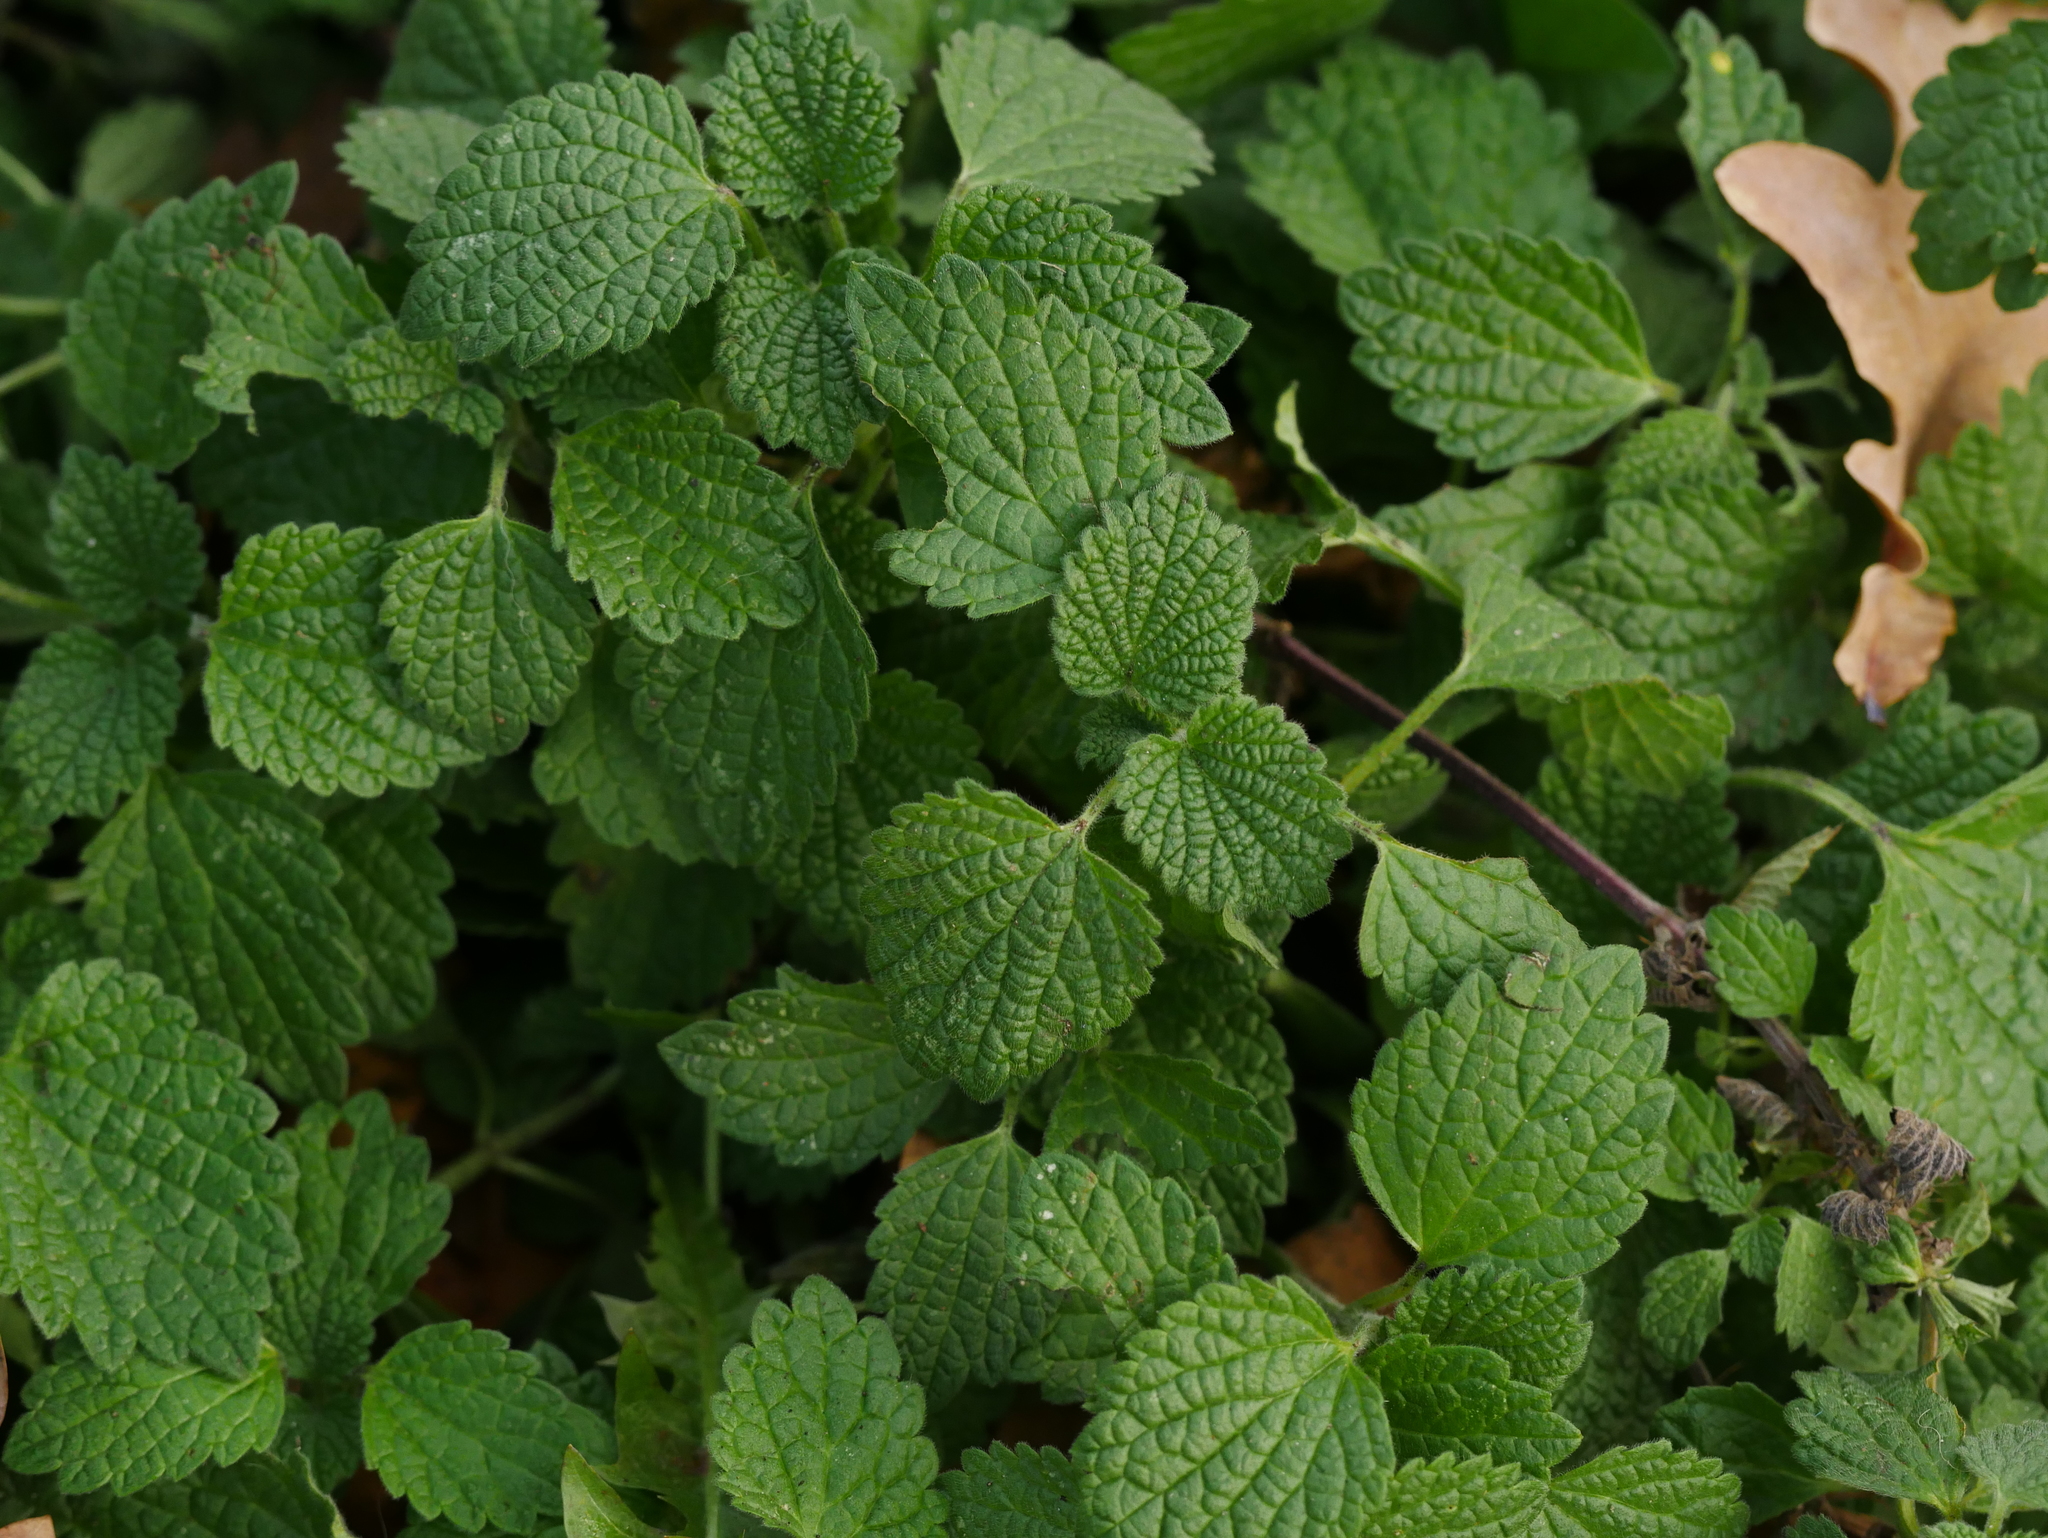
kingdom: Plantae
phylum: Tracheophyta
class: Magnoliopsida
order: Lamiales
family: Lamiaceae
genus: Ballota
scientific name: Ballota nigra
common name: Black horehound
